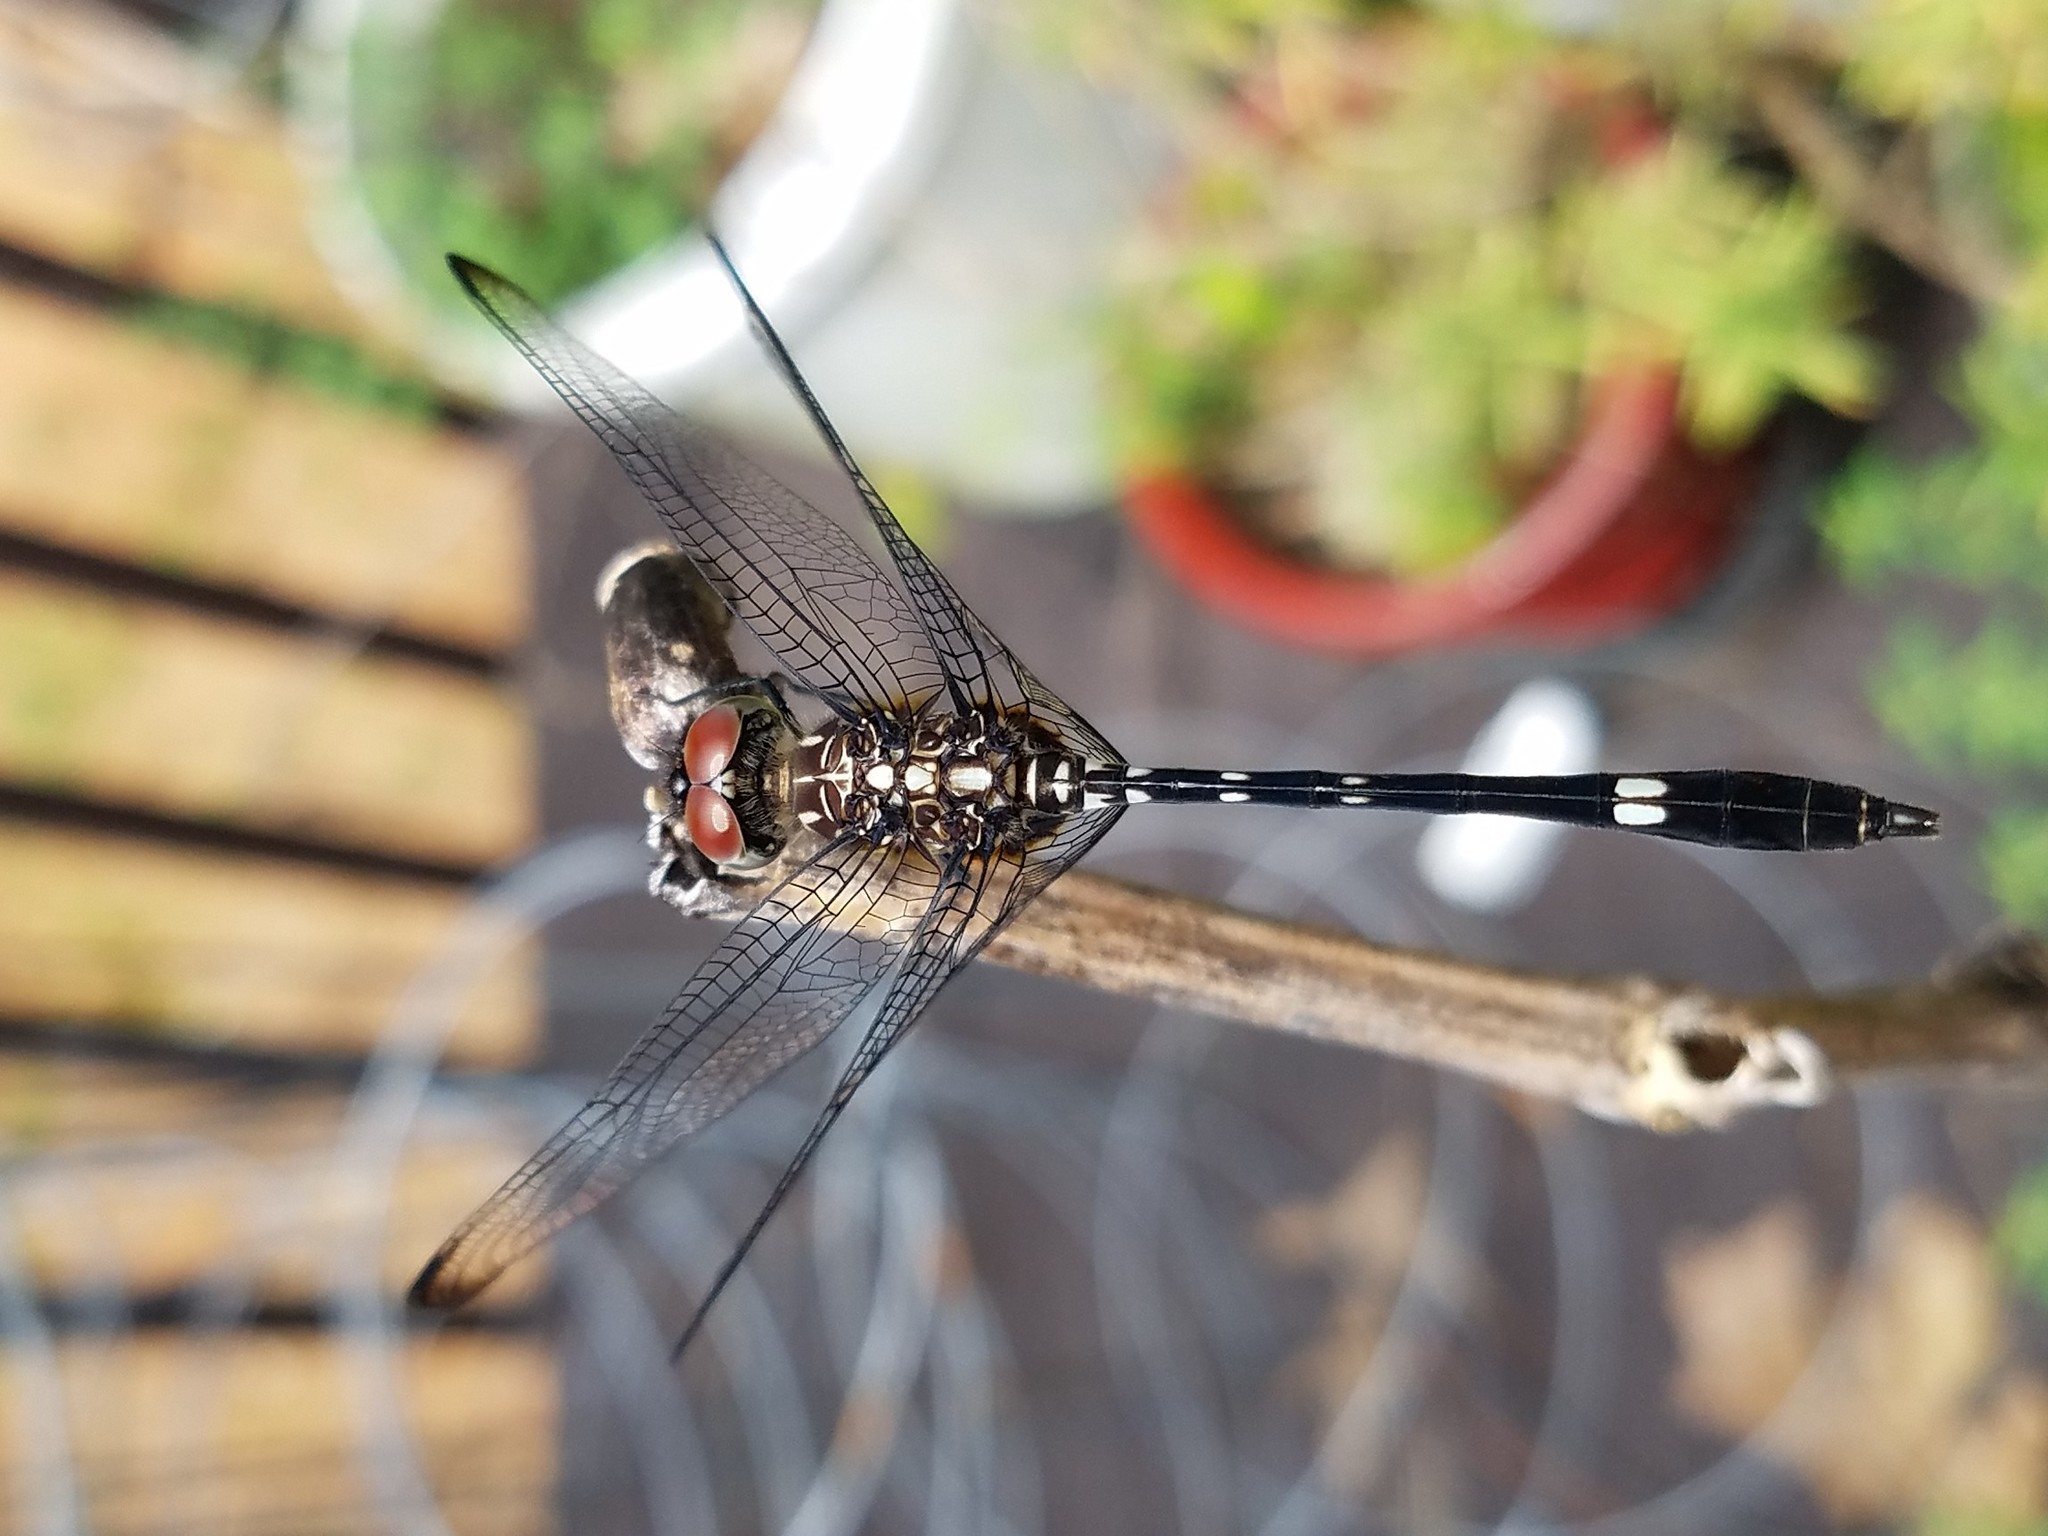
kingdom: Animalia
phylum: Arthropoda
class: Insecta
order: Odonata
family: Libellulidae
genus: Dythemis
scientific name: Dythemis velox
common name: Swift setwing
